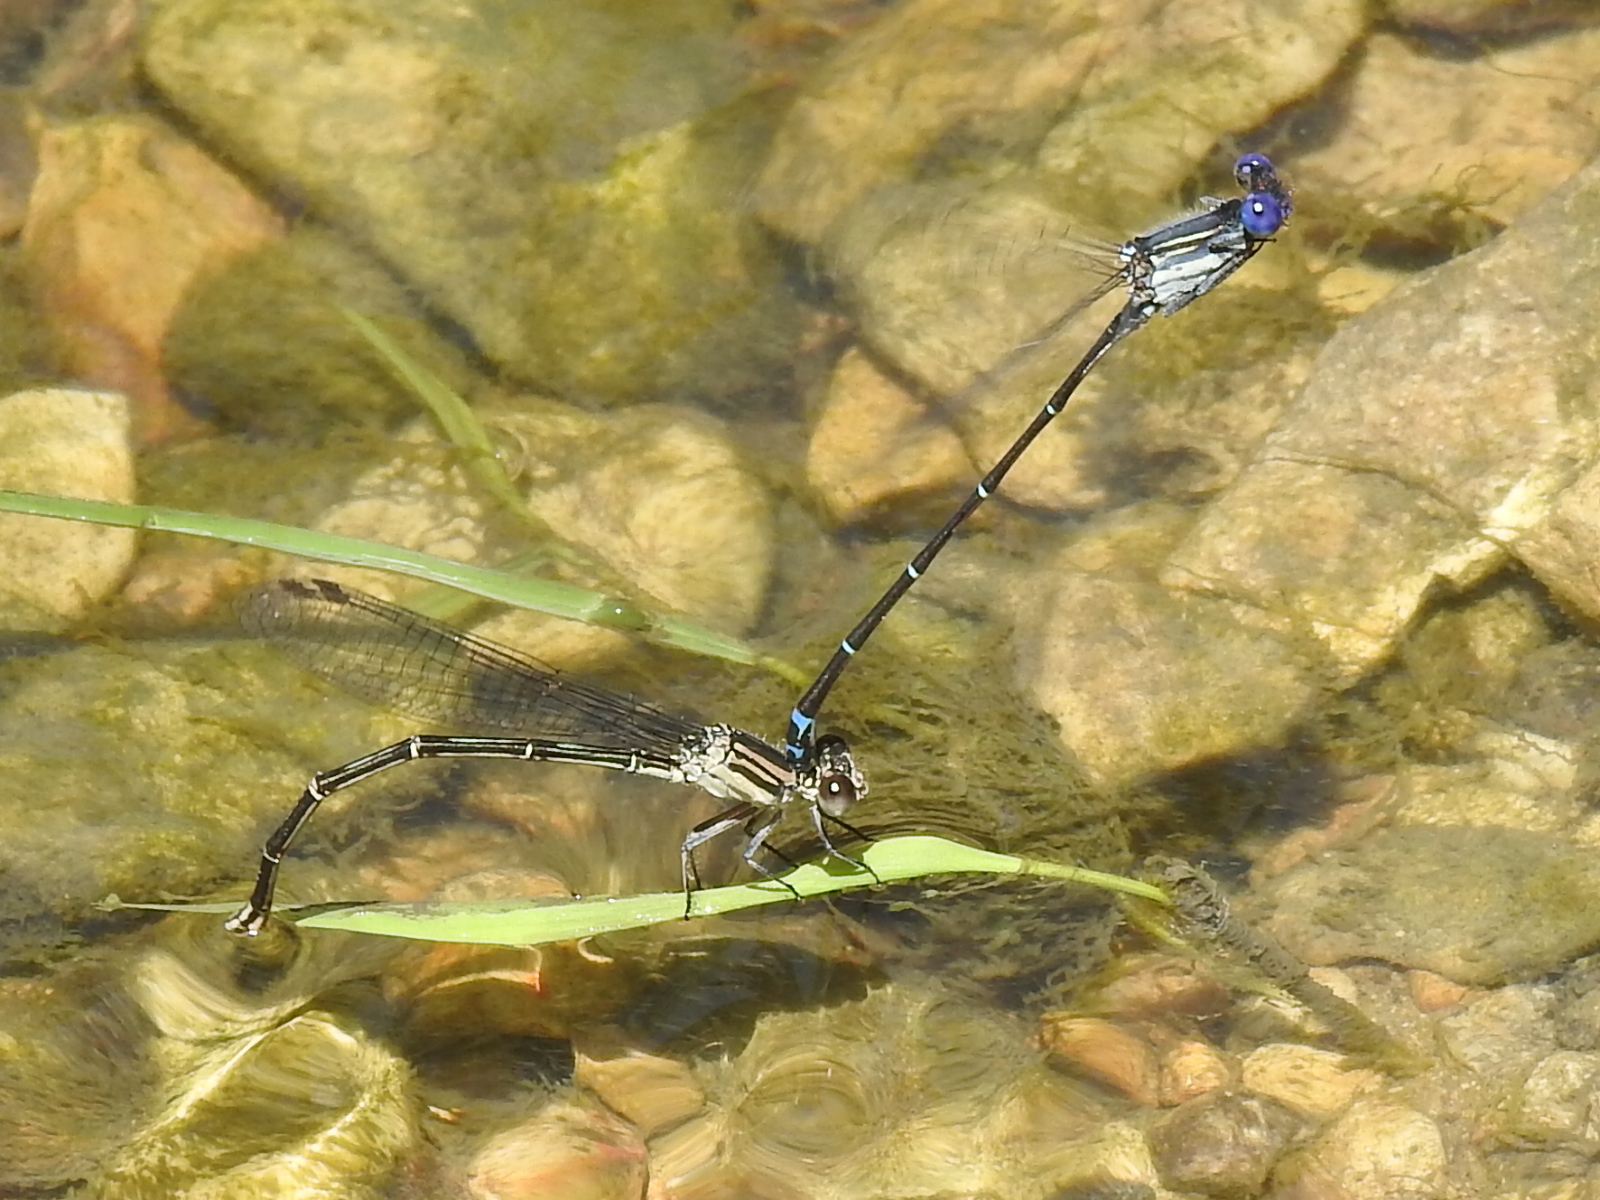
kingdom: Animalia
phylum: Arthropoda
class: Insecta
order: Odonata
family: Coenagrionidae
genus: Argia
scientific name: Argia translata
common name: Dusky dancer
